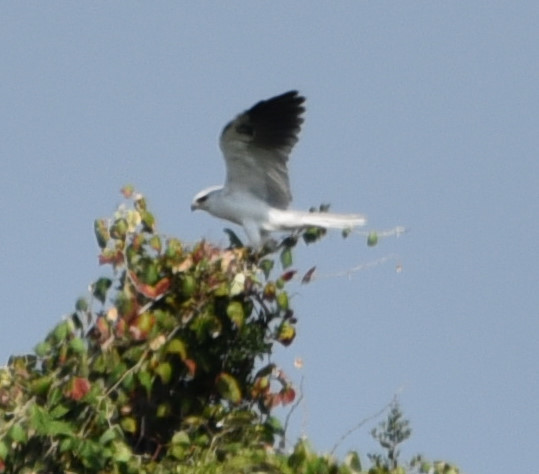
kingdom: Animalia
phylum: Chordata
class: Aves
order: Accipitriformes
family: Accipitridae
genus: Elanus
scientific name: Elanus leucurus
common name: White-tailed kite
